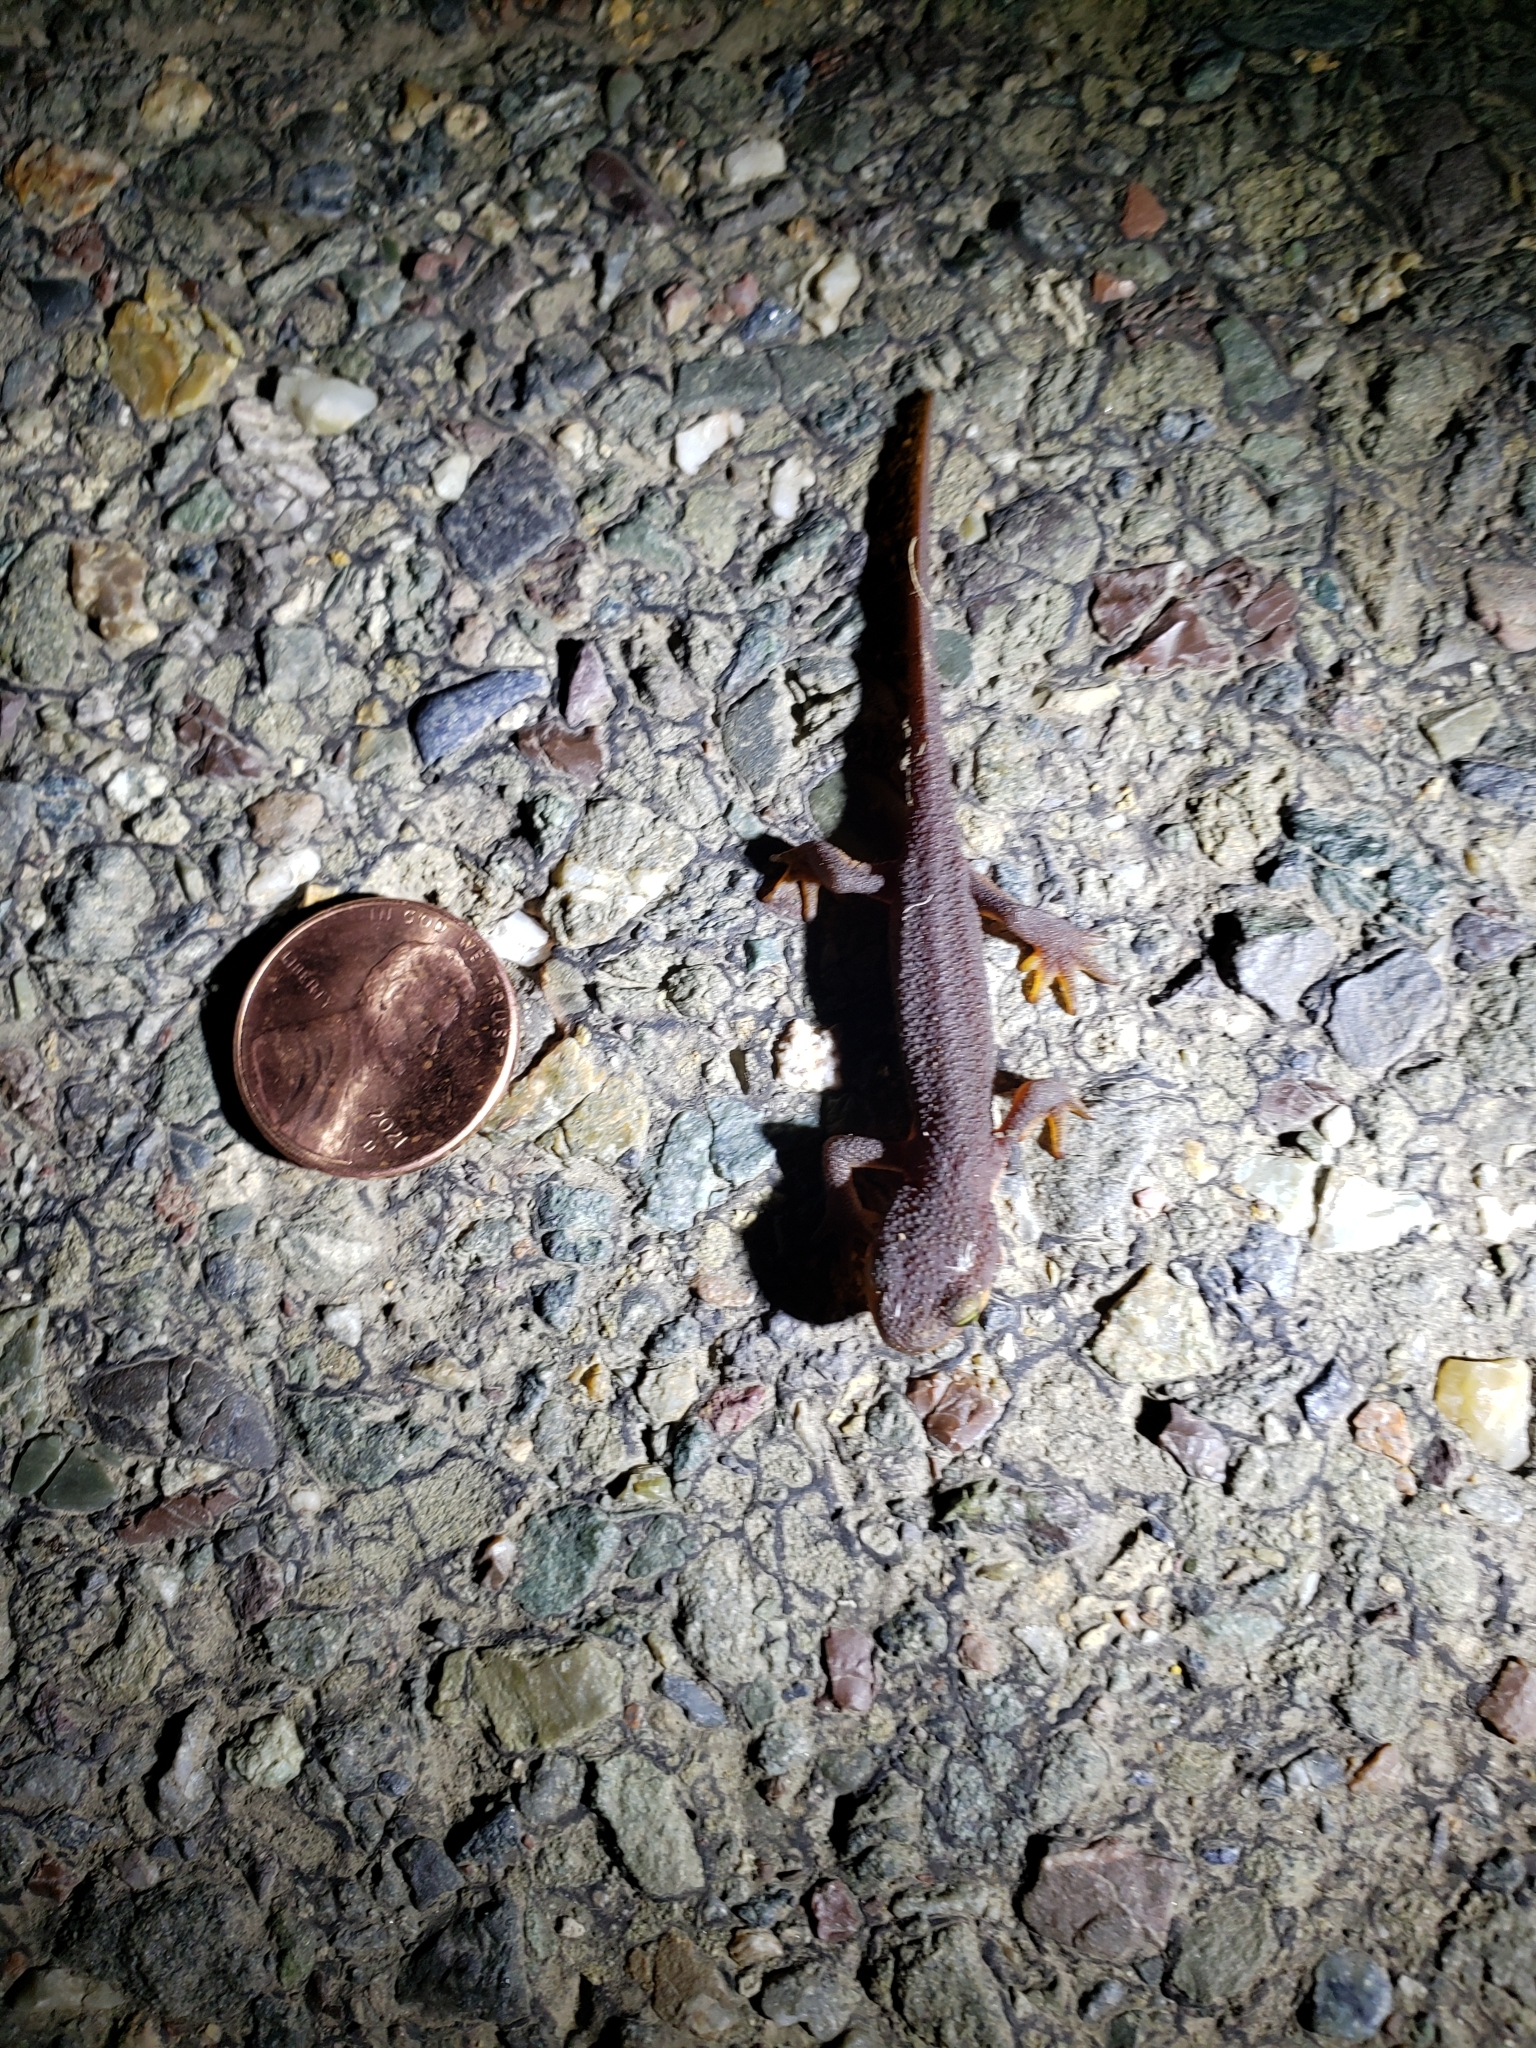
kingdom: Animalia
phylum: Chordata
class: Amphibia
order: Caudata
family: Salamandridae
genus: Taricha
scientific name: Taricha torosa
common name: California newt
